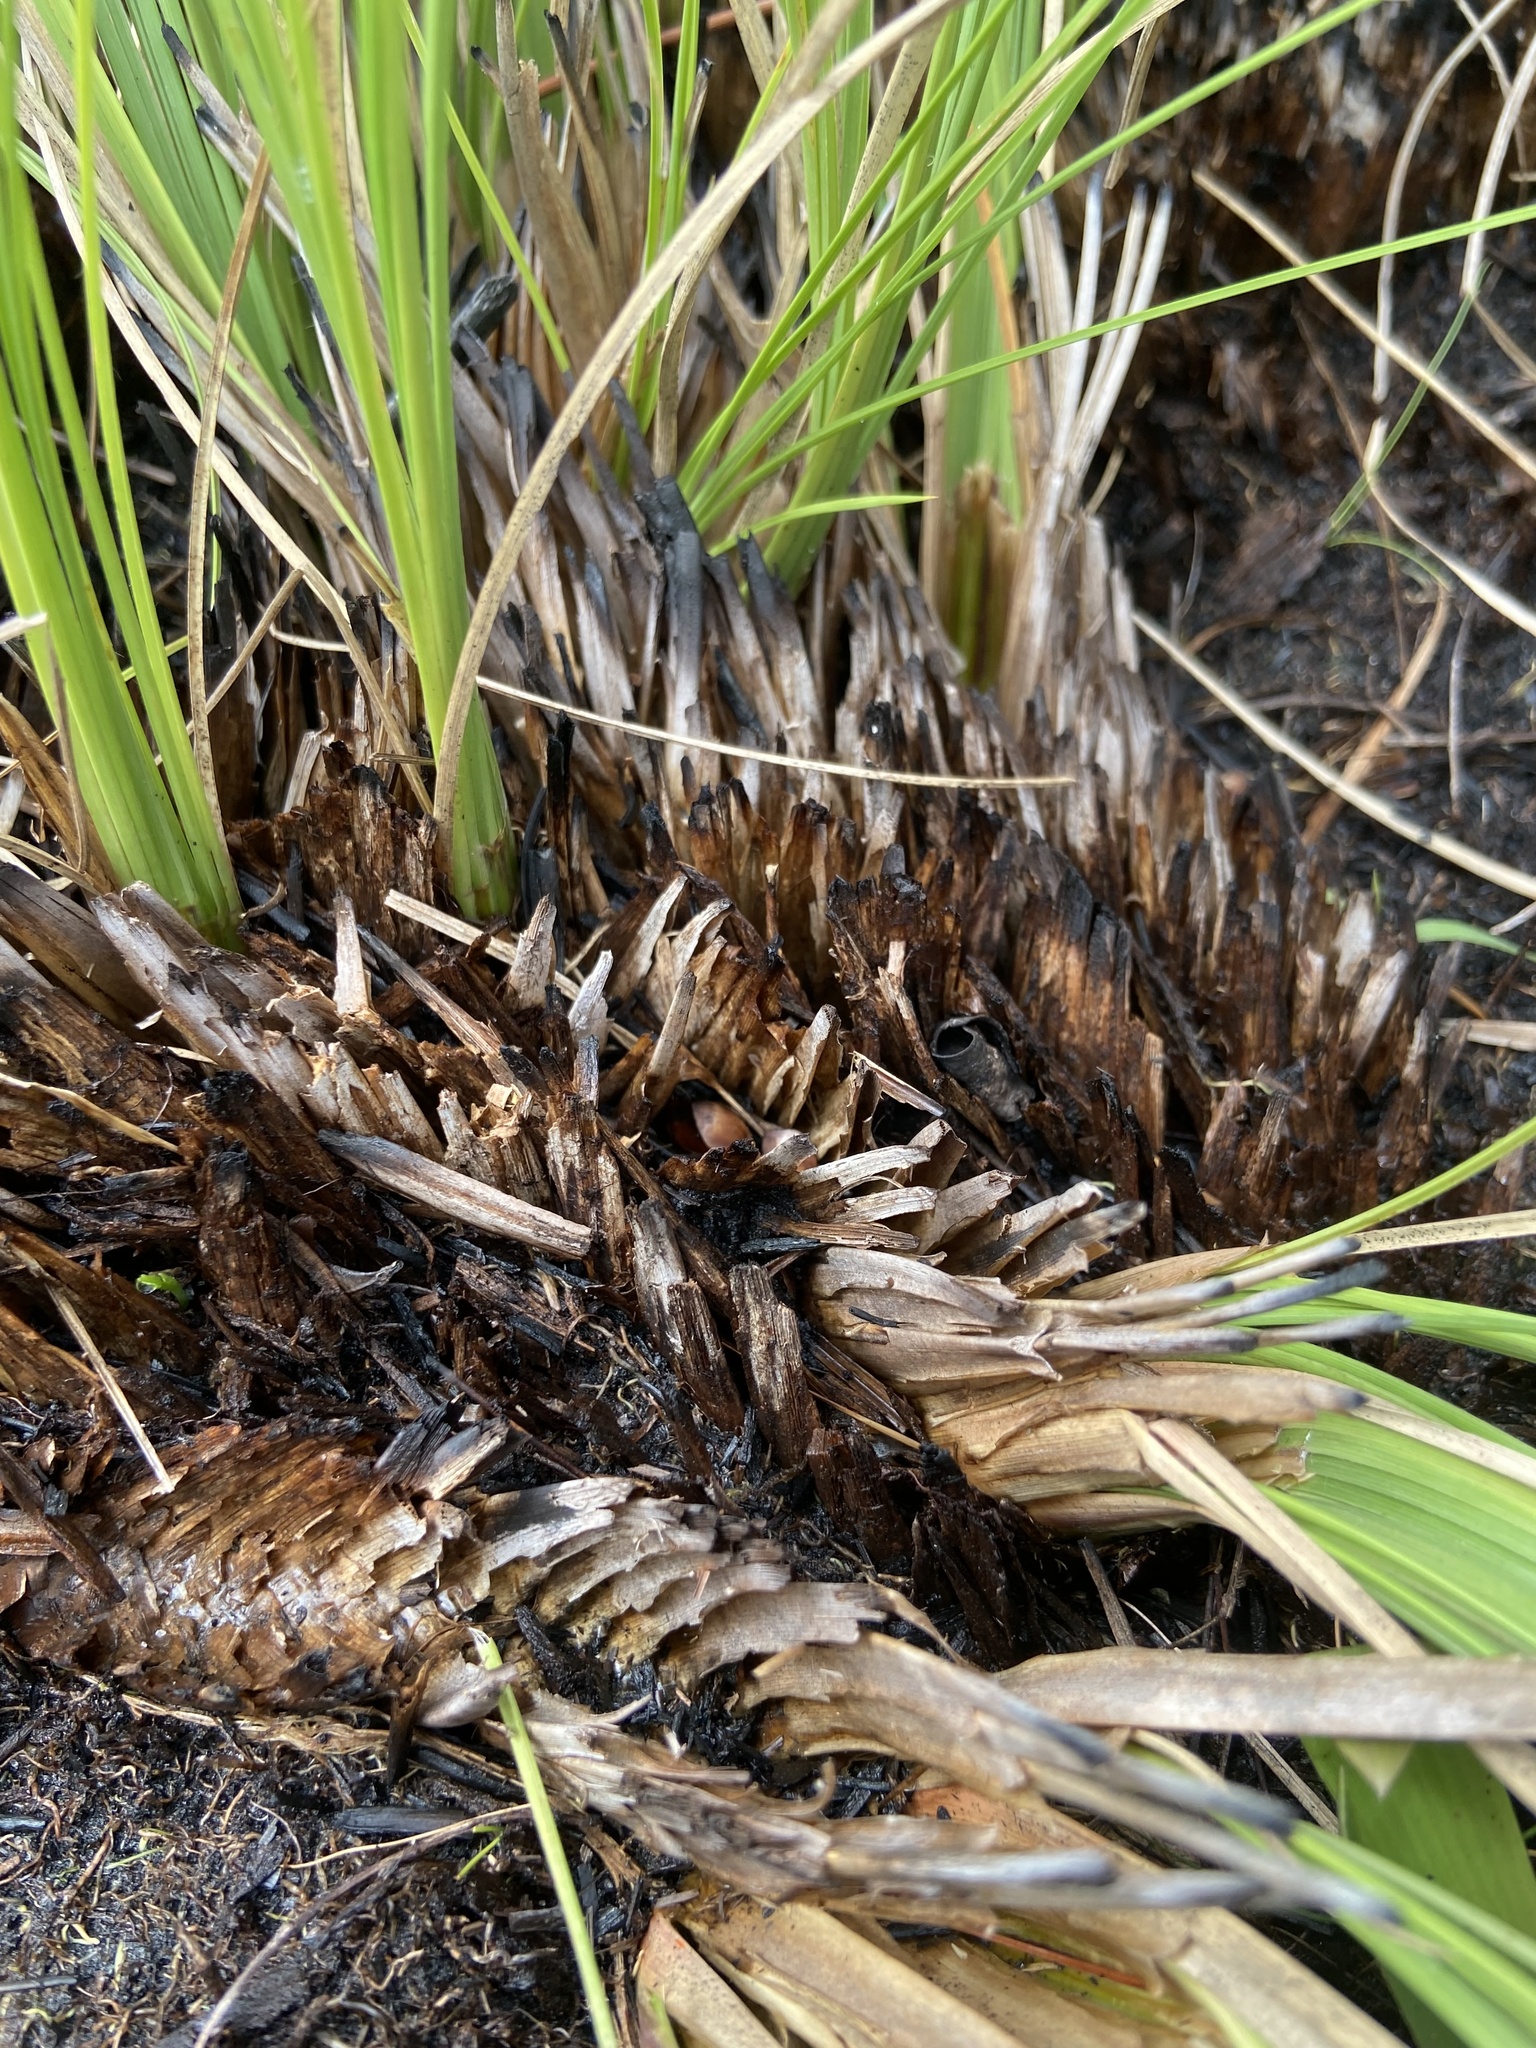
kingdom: Plantae
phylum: Tracheophyta
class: Liliopsida
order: Poales
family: Poaceae
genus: Coleataenia
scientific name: Coleataenia abscissa
